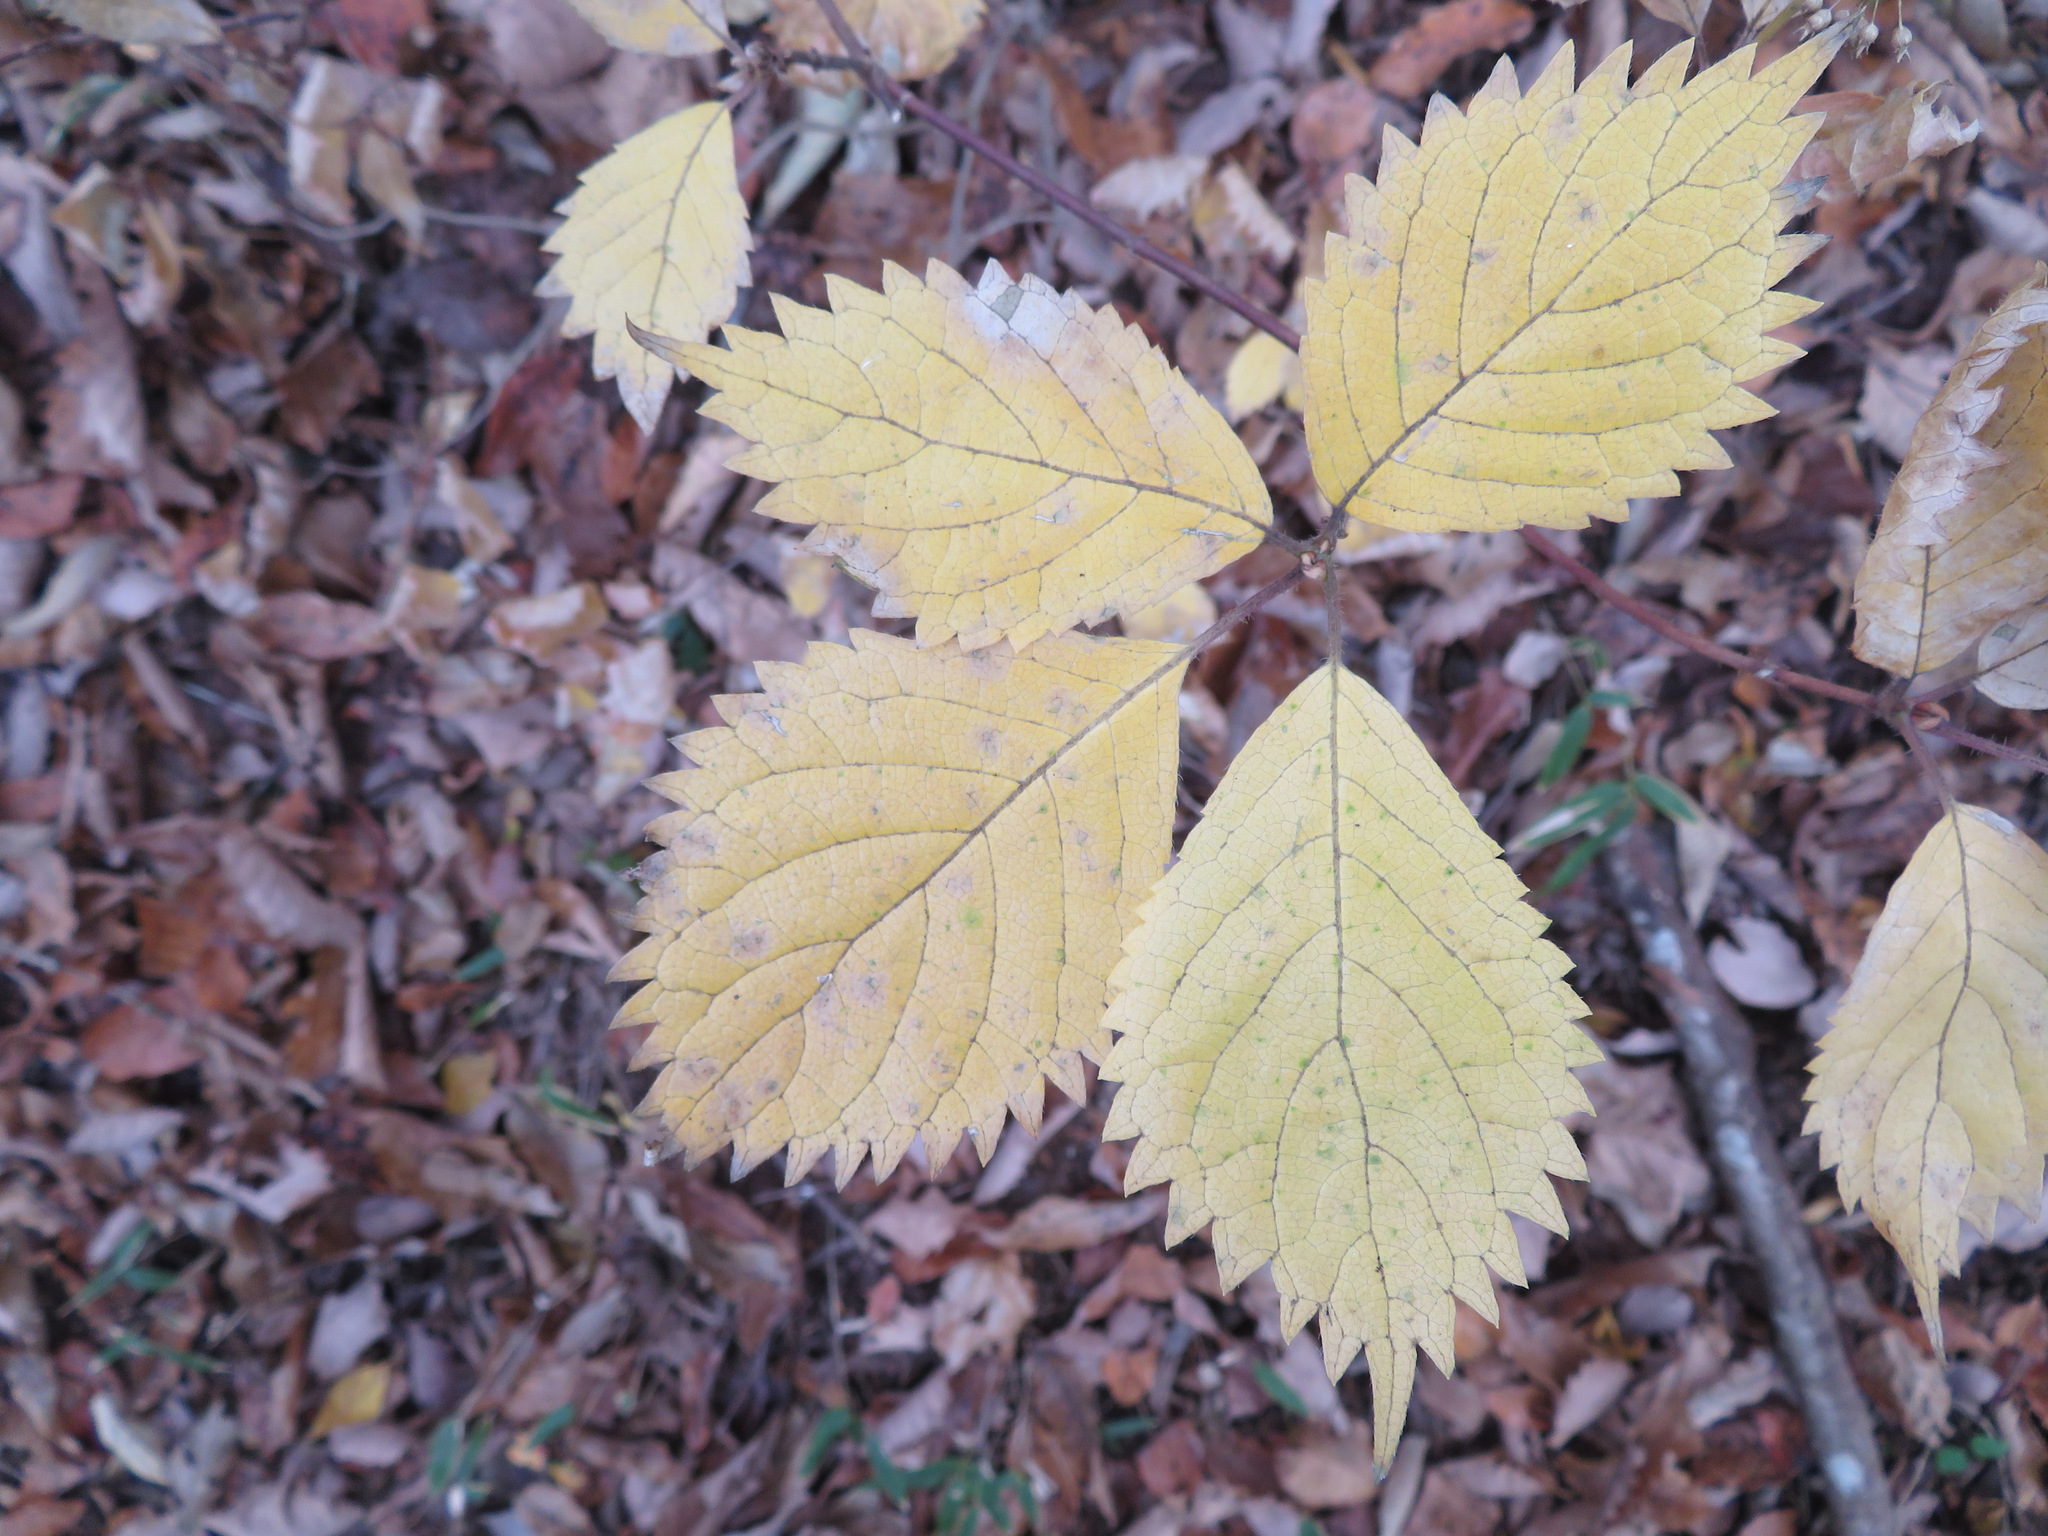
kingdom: Plantae
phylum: Tracheophyta
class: Magnoliopsida
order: Cornales
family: Hydrangeaceae
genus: Hydrangea
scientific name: Hydrangea hirta
